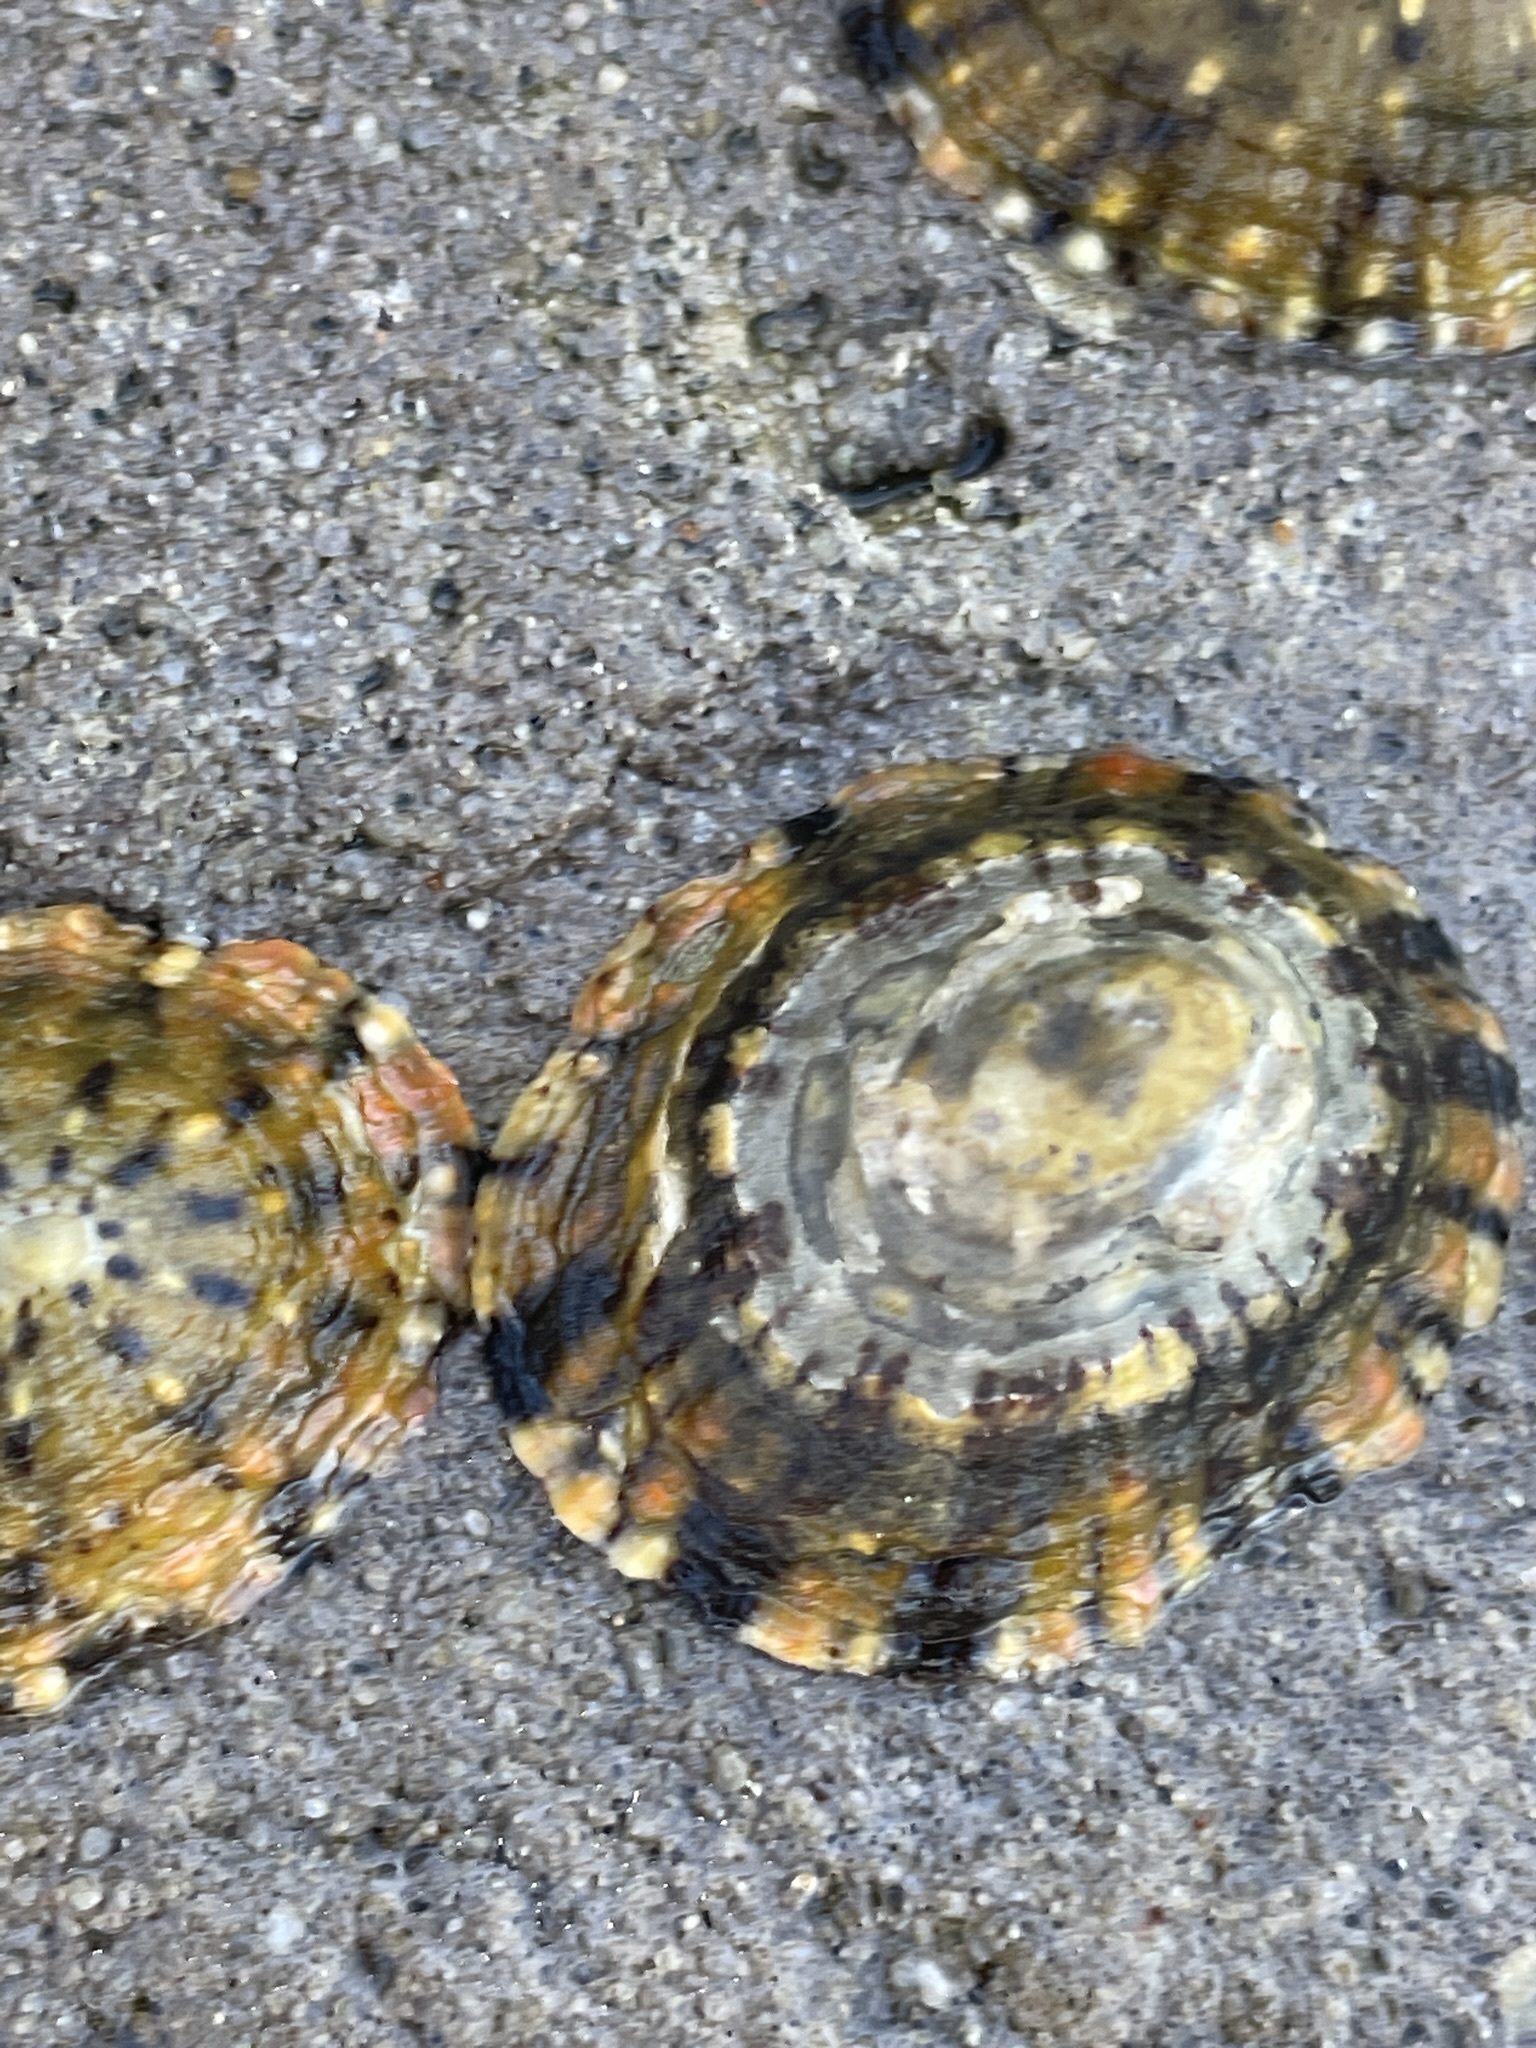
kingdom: Animalia
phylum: Mollusca
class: Gastropoda
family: Nacellidae
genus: Cellana
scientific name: Cellana tramoserica
